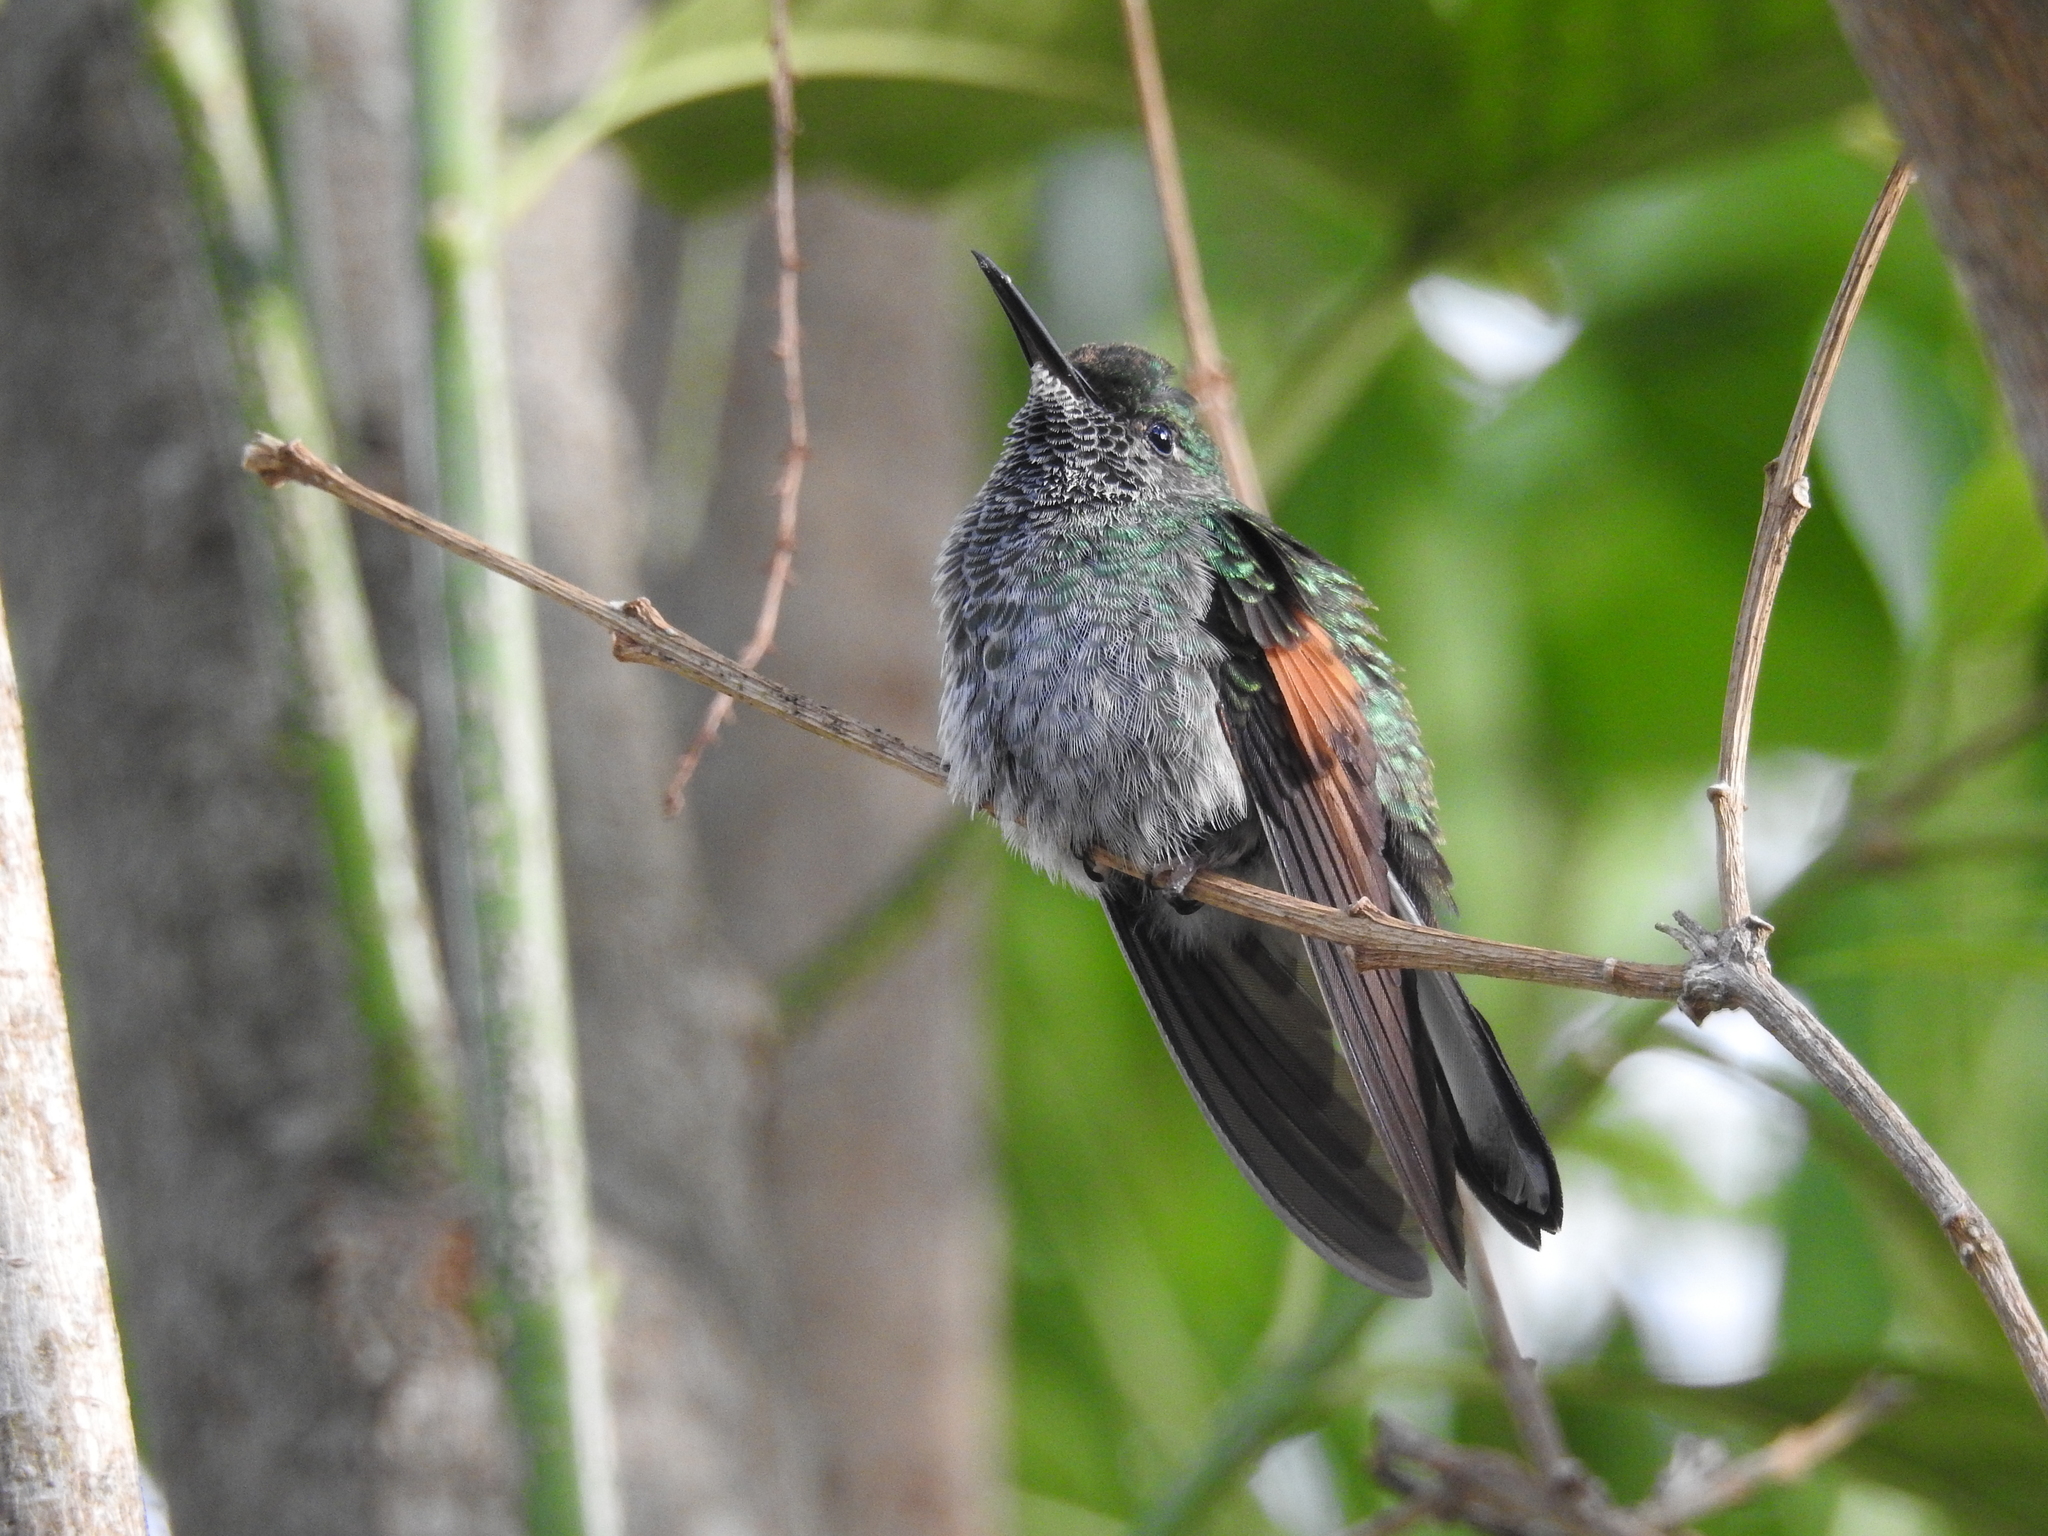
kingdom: Animalia
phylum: Chordata
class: Aves
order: Apodiformes
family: Trochilidae
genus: Eupherusa
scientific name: Eupherusa eximia
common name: Stripe-tailed hummingbird
